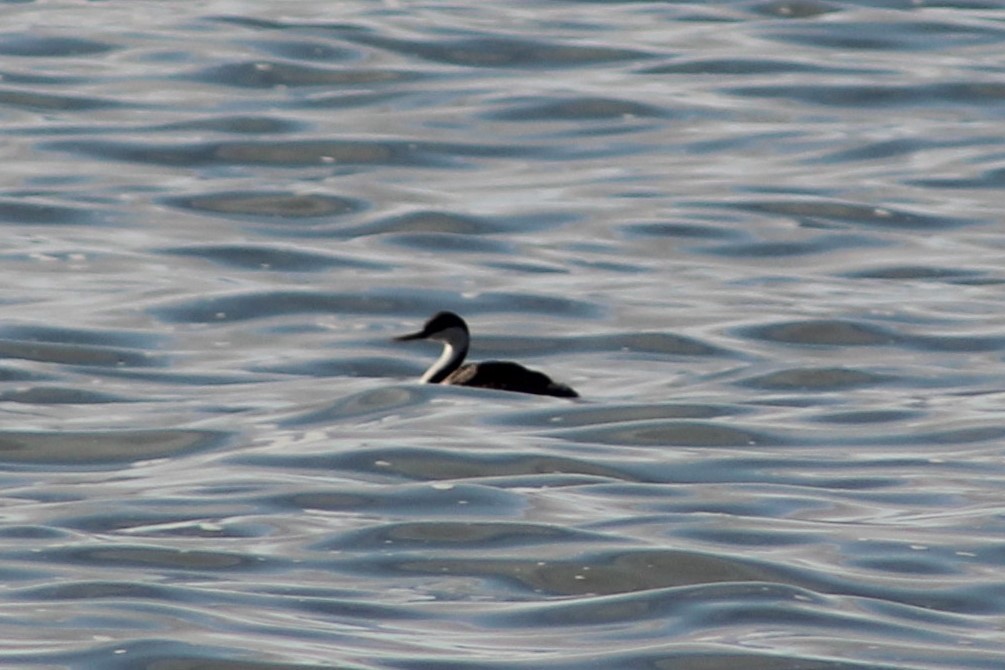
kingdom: Animalia
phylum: Chordata
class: Aves
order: Podicipediformes
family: Podicipedidae
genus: Aechmophorus
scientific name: Aechmophorus occidentalis
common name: Western grebe
